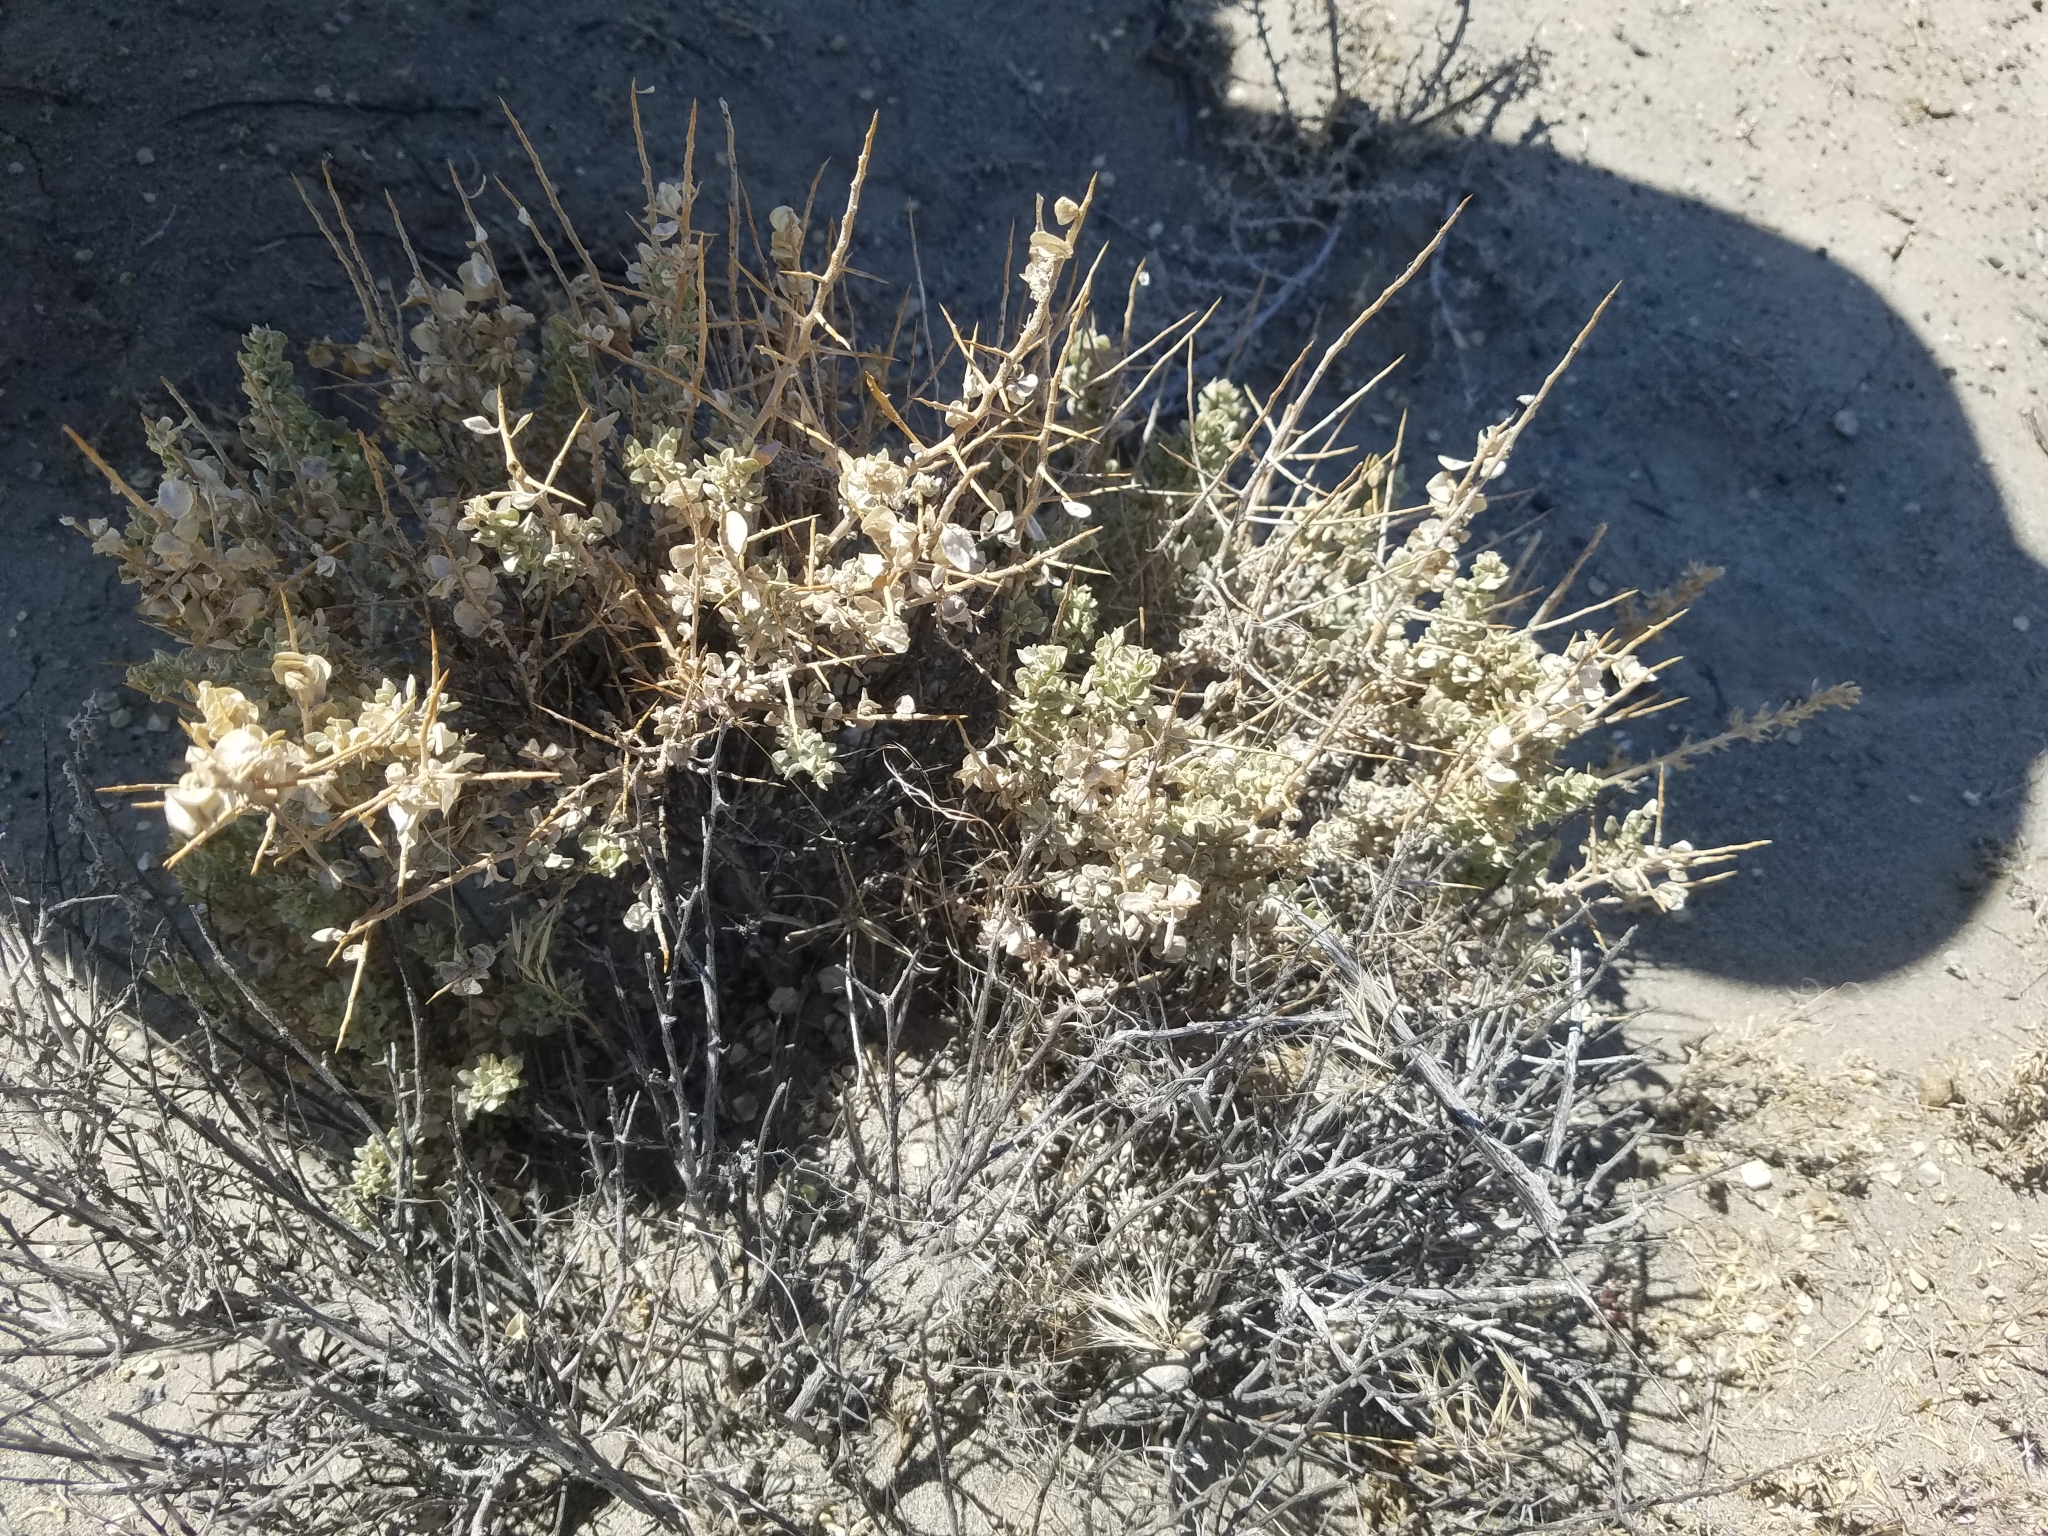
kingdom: Plantae
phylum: Tracheophyta
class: Magnoliopsida
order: Caryophyllales
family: Amaranthaceae
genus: Atriplex
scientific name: Atriplex confertifolia
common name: Shadscale
